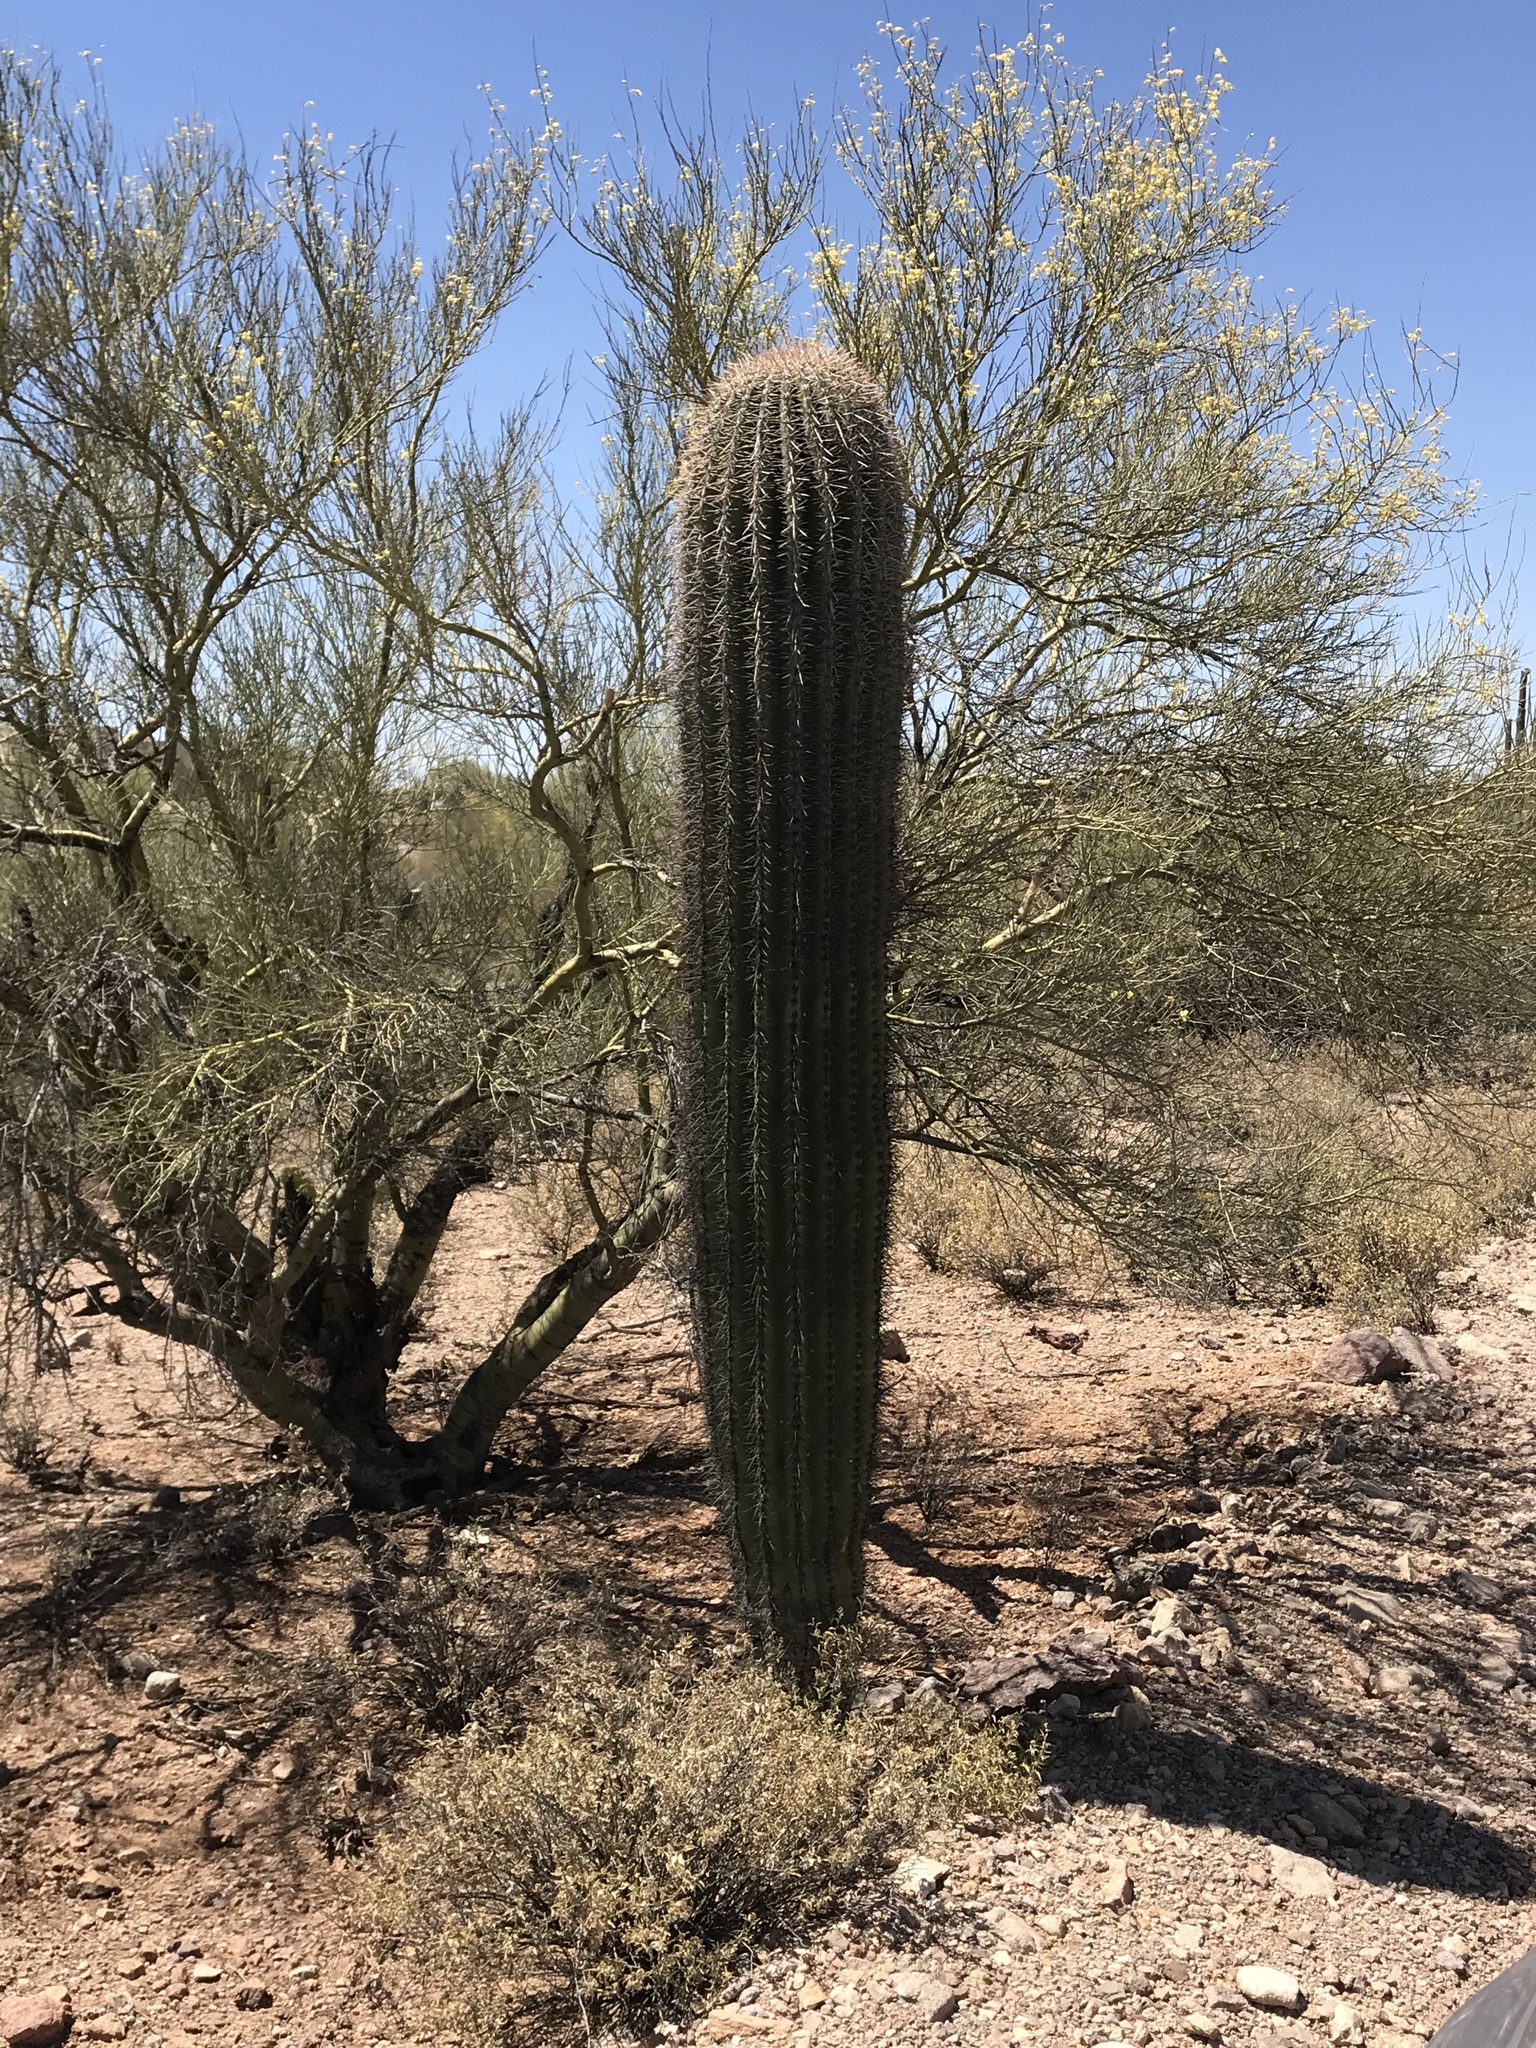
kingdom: Plantae
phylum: Tracheophyta
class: Magnoliopsida
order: Caryophyllales
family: Cactaceae
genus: Carnegiea
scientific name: Carnegiea gigantea
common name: Saguaro
